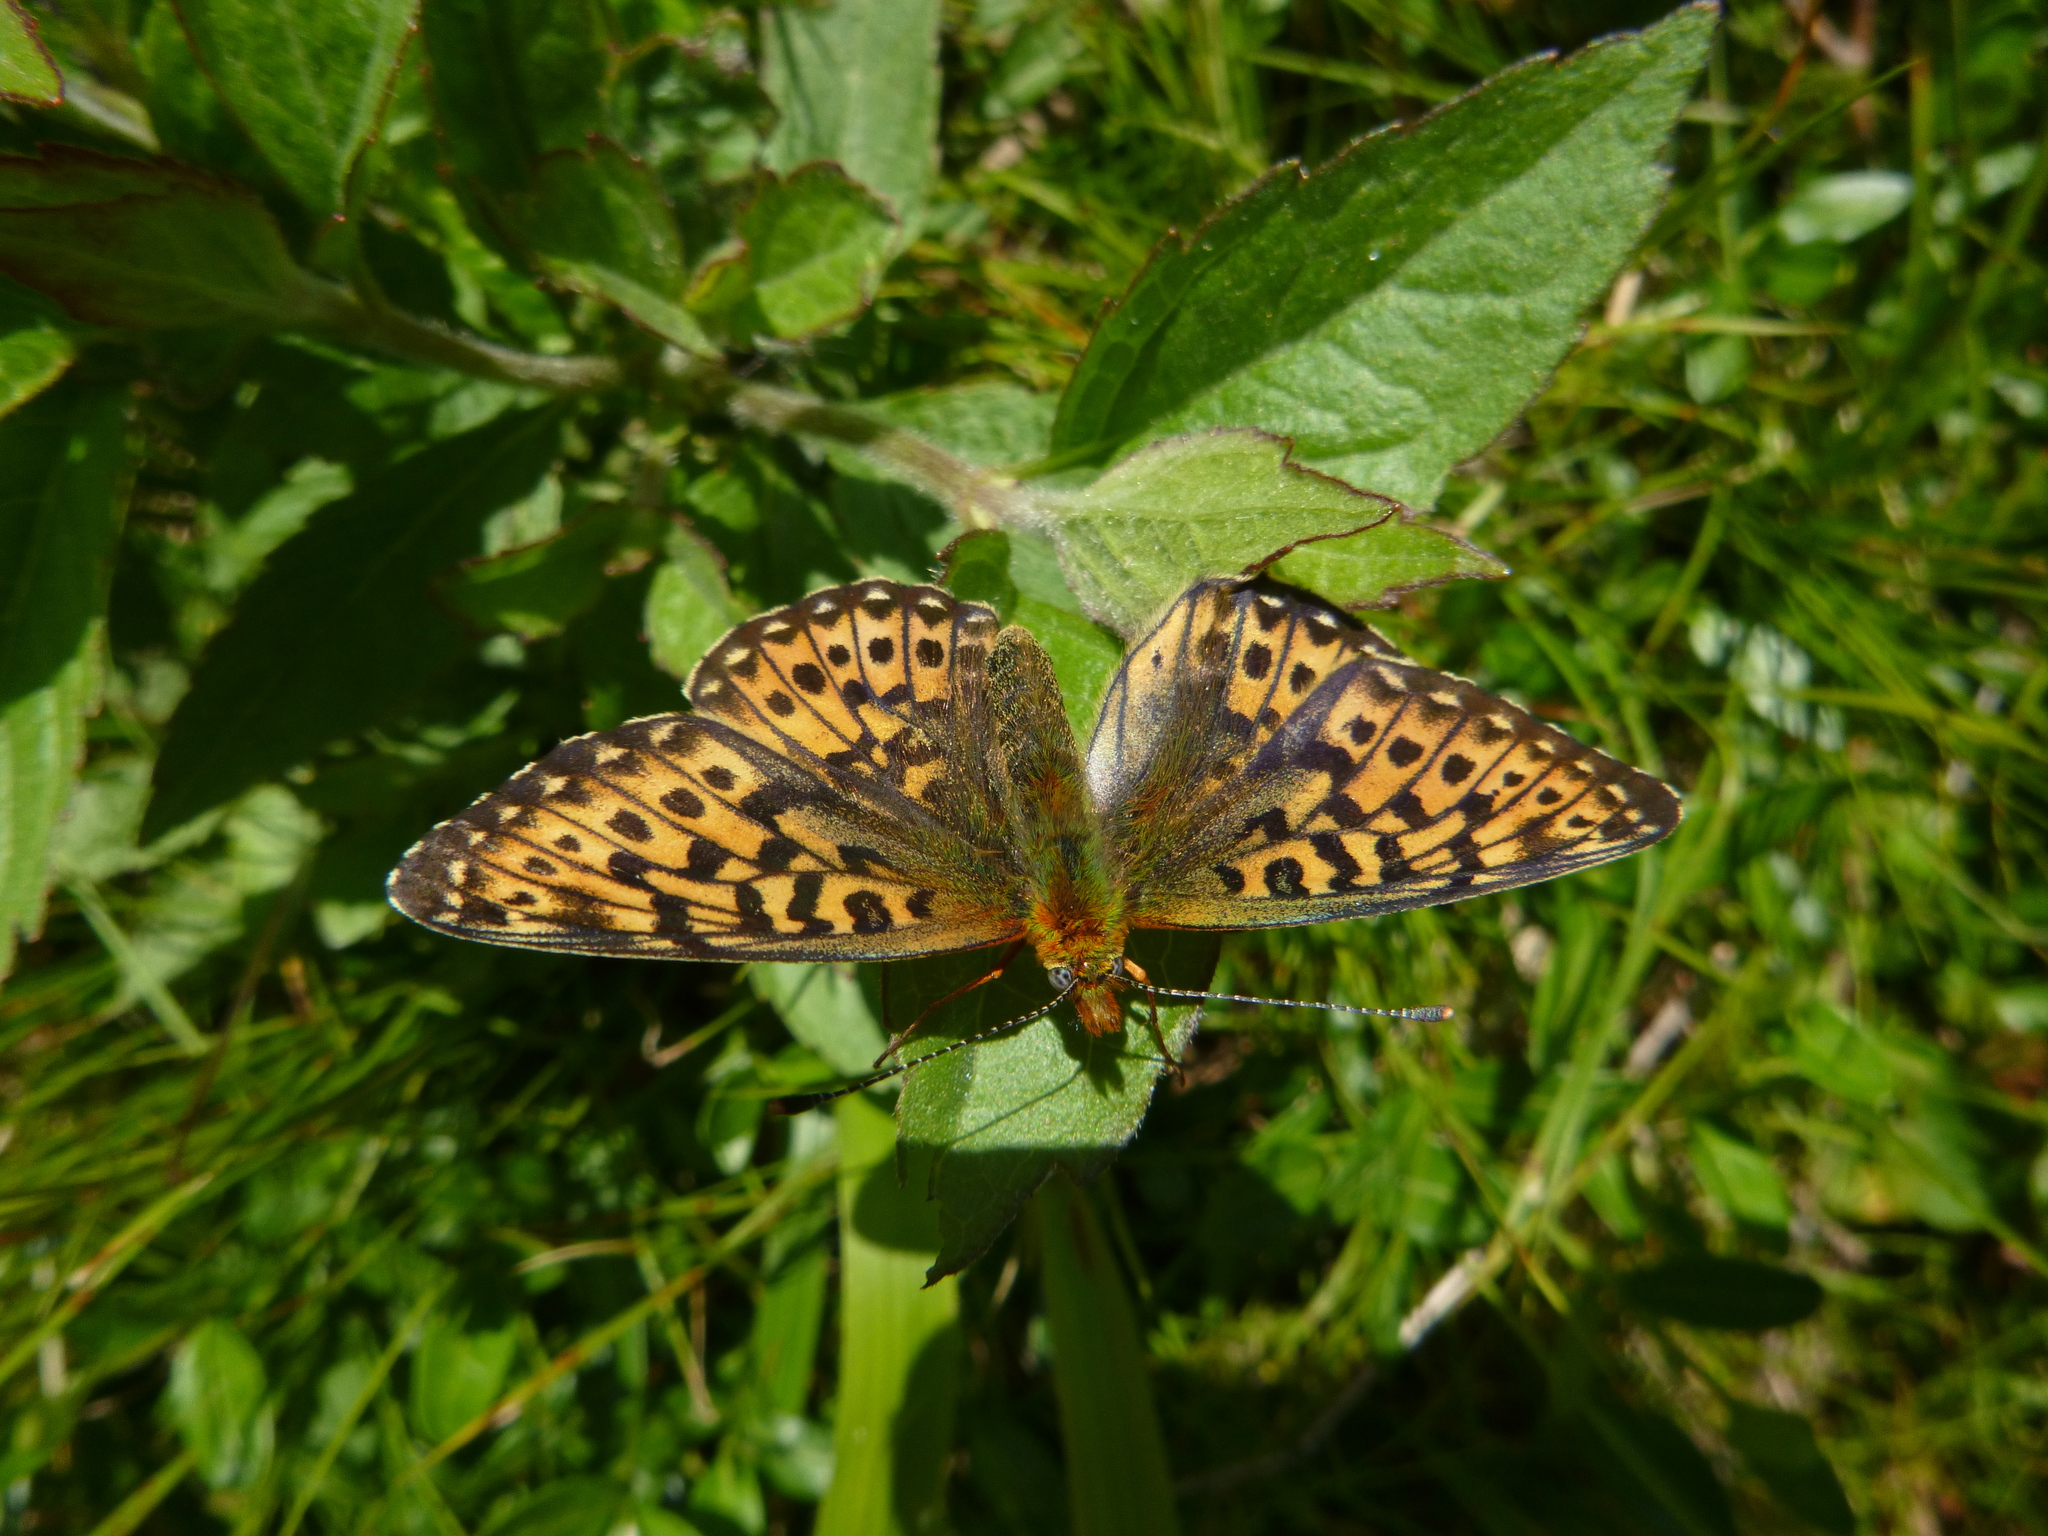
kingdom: Animalia
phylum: Arthropoda
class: Insecta
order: Lepidoptera
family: Nymphalidae
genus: Clossiana
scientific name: Clossiana euphrosyne
